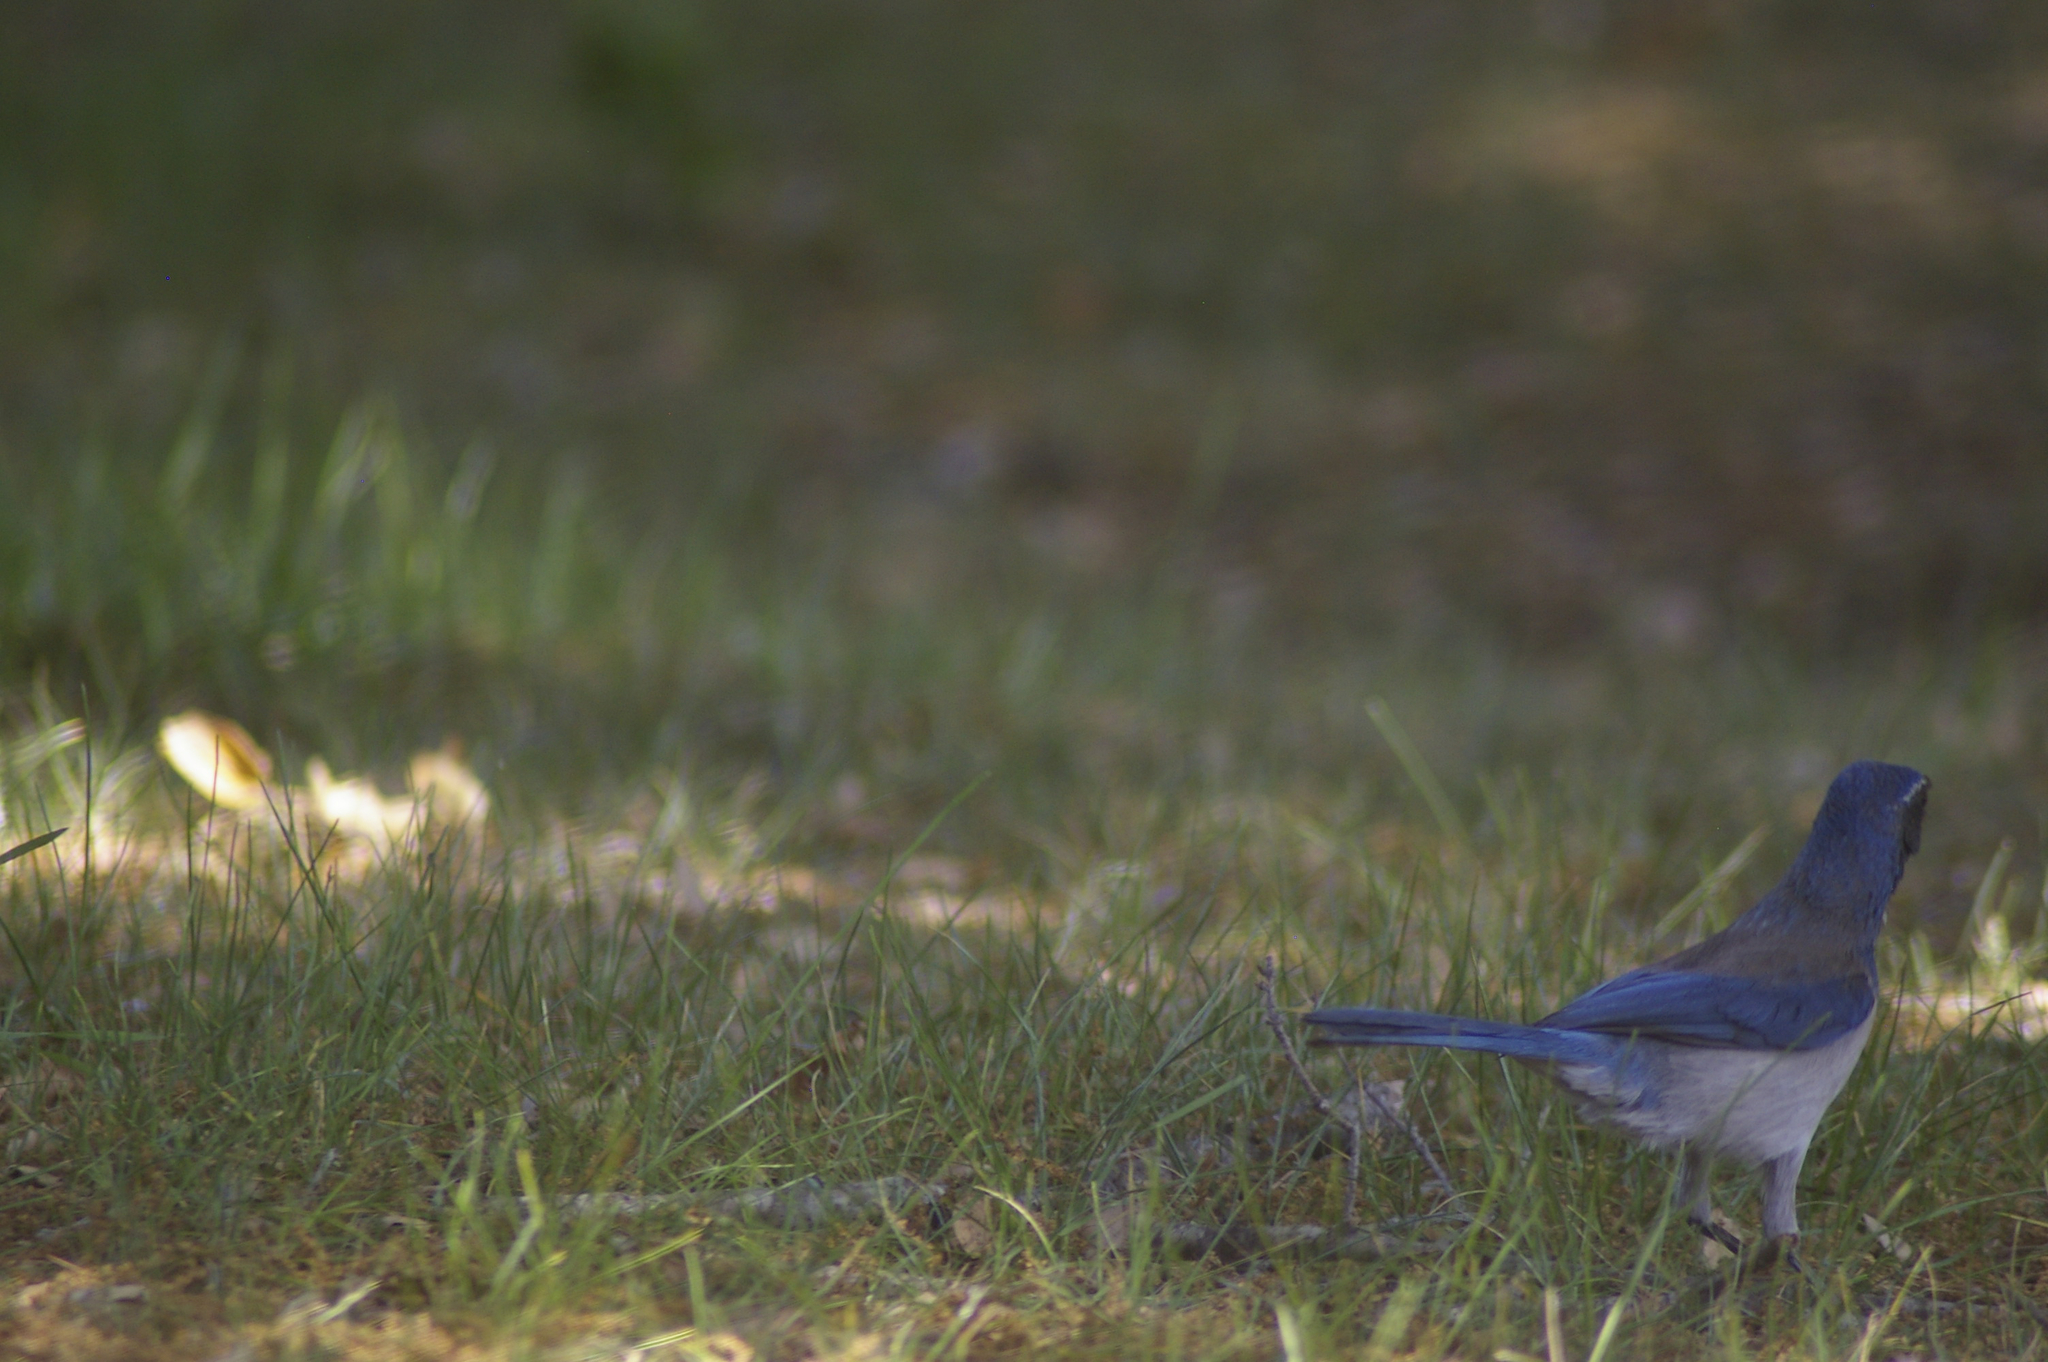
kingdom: Animalia
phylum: Chordata
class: Aves
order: Passeriformes
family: Corvidae
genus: Aphelocoma
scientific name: Aphelocoma californica
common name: California scrub-jay
